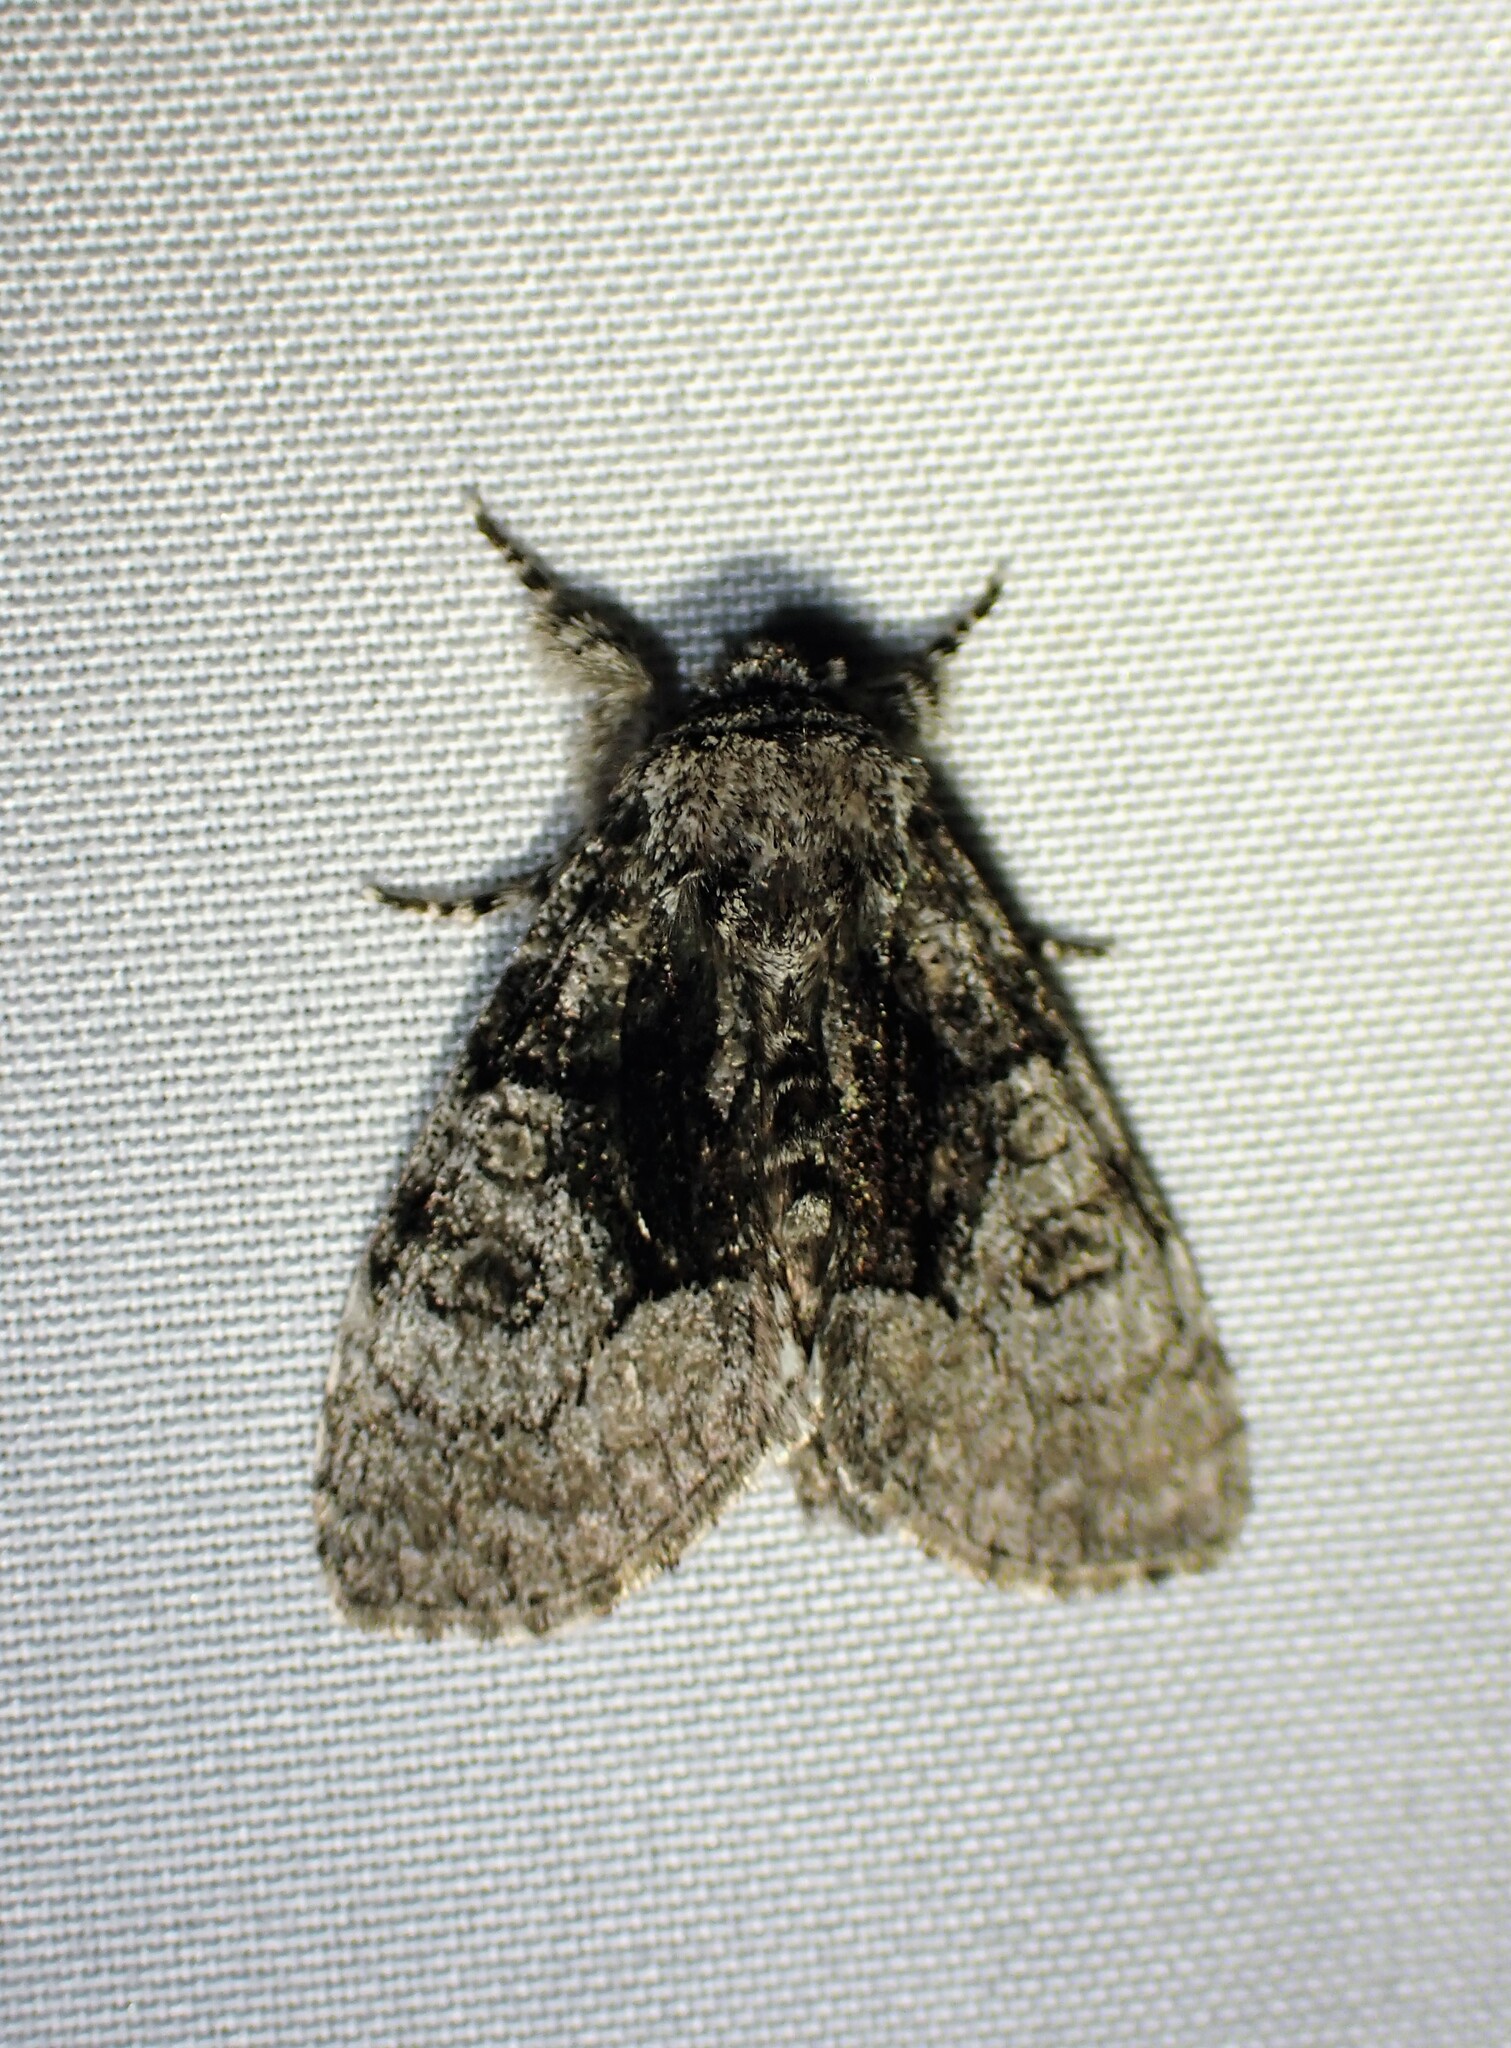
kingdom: Animalia
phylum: Arthropoda
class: Insecta
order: Lepidoptera
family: Noctuidae
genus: Raphia
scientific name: Raphia frater
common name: Brother
